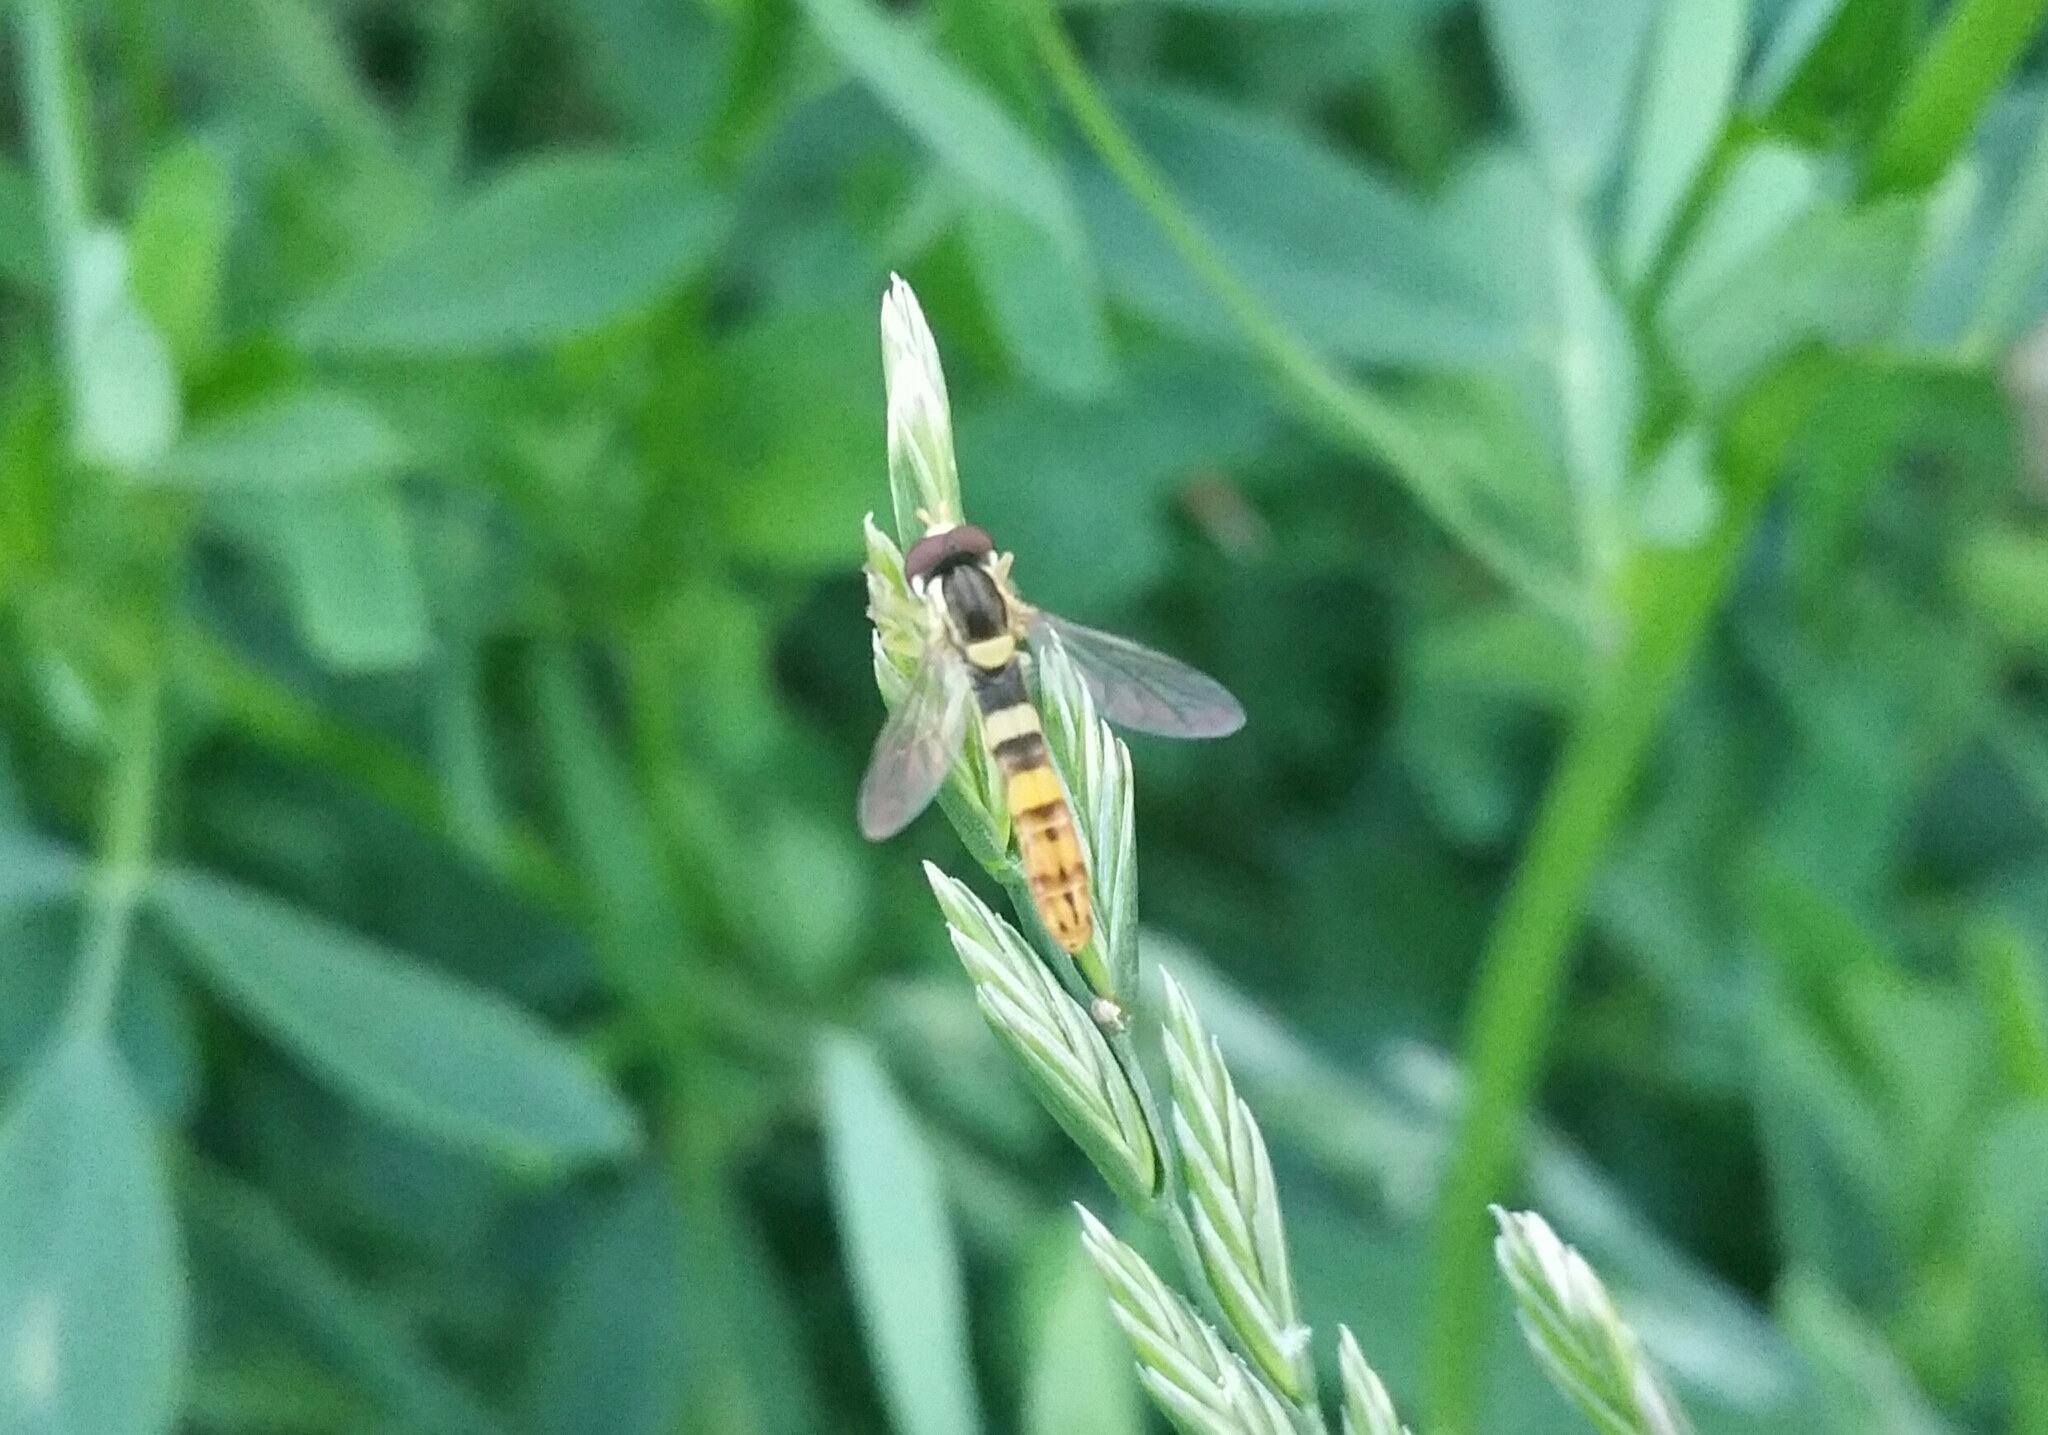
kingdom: Animalia
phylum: Arthropoda
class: Insecta
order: Diptera
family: Syrphidae
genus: Sphaerophoria
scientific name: Sphaerophoria scripta
